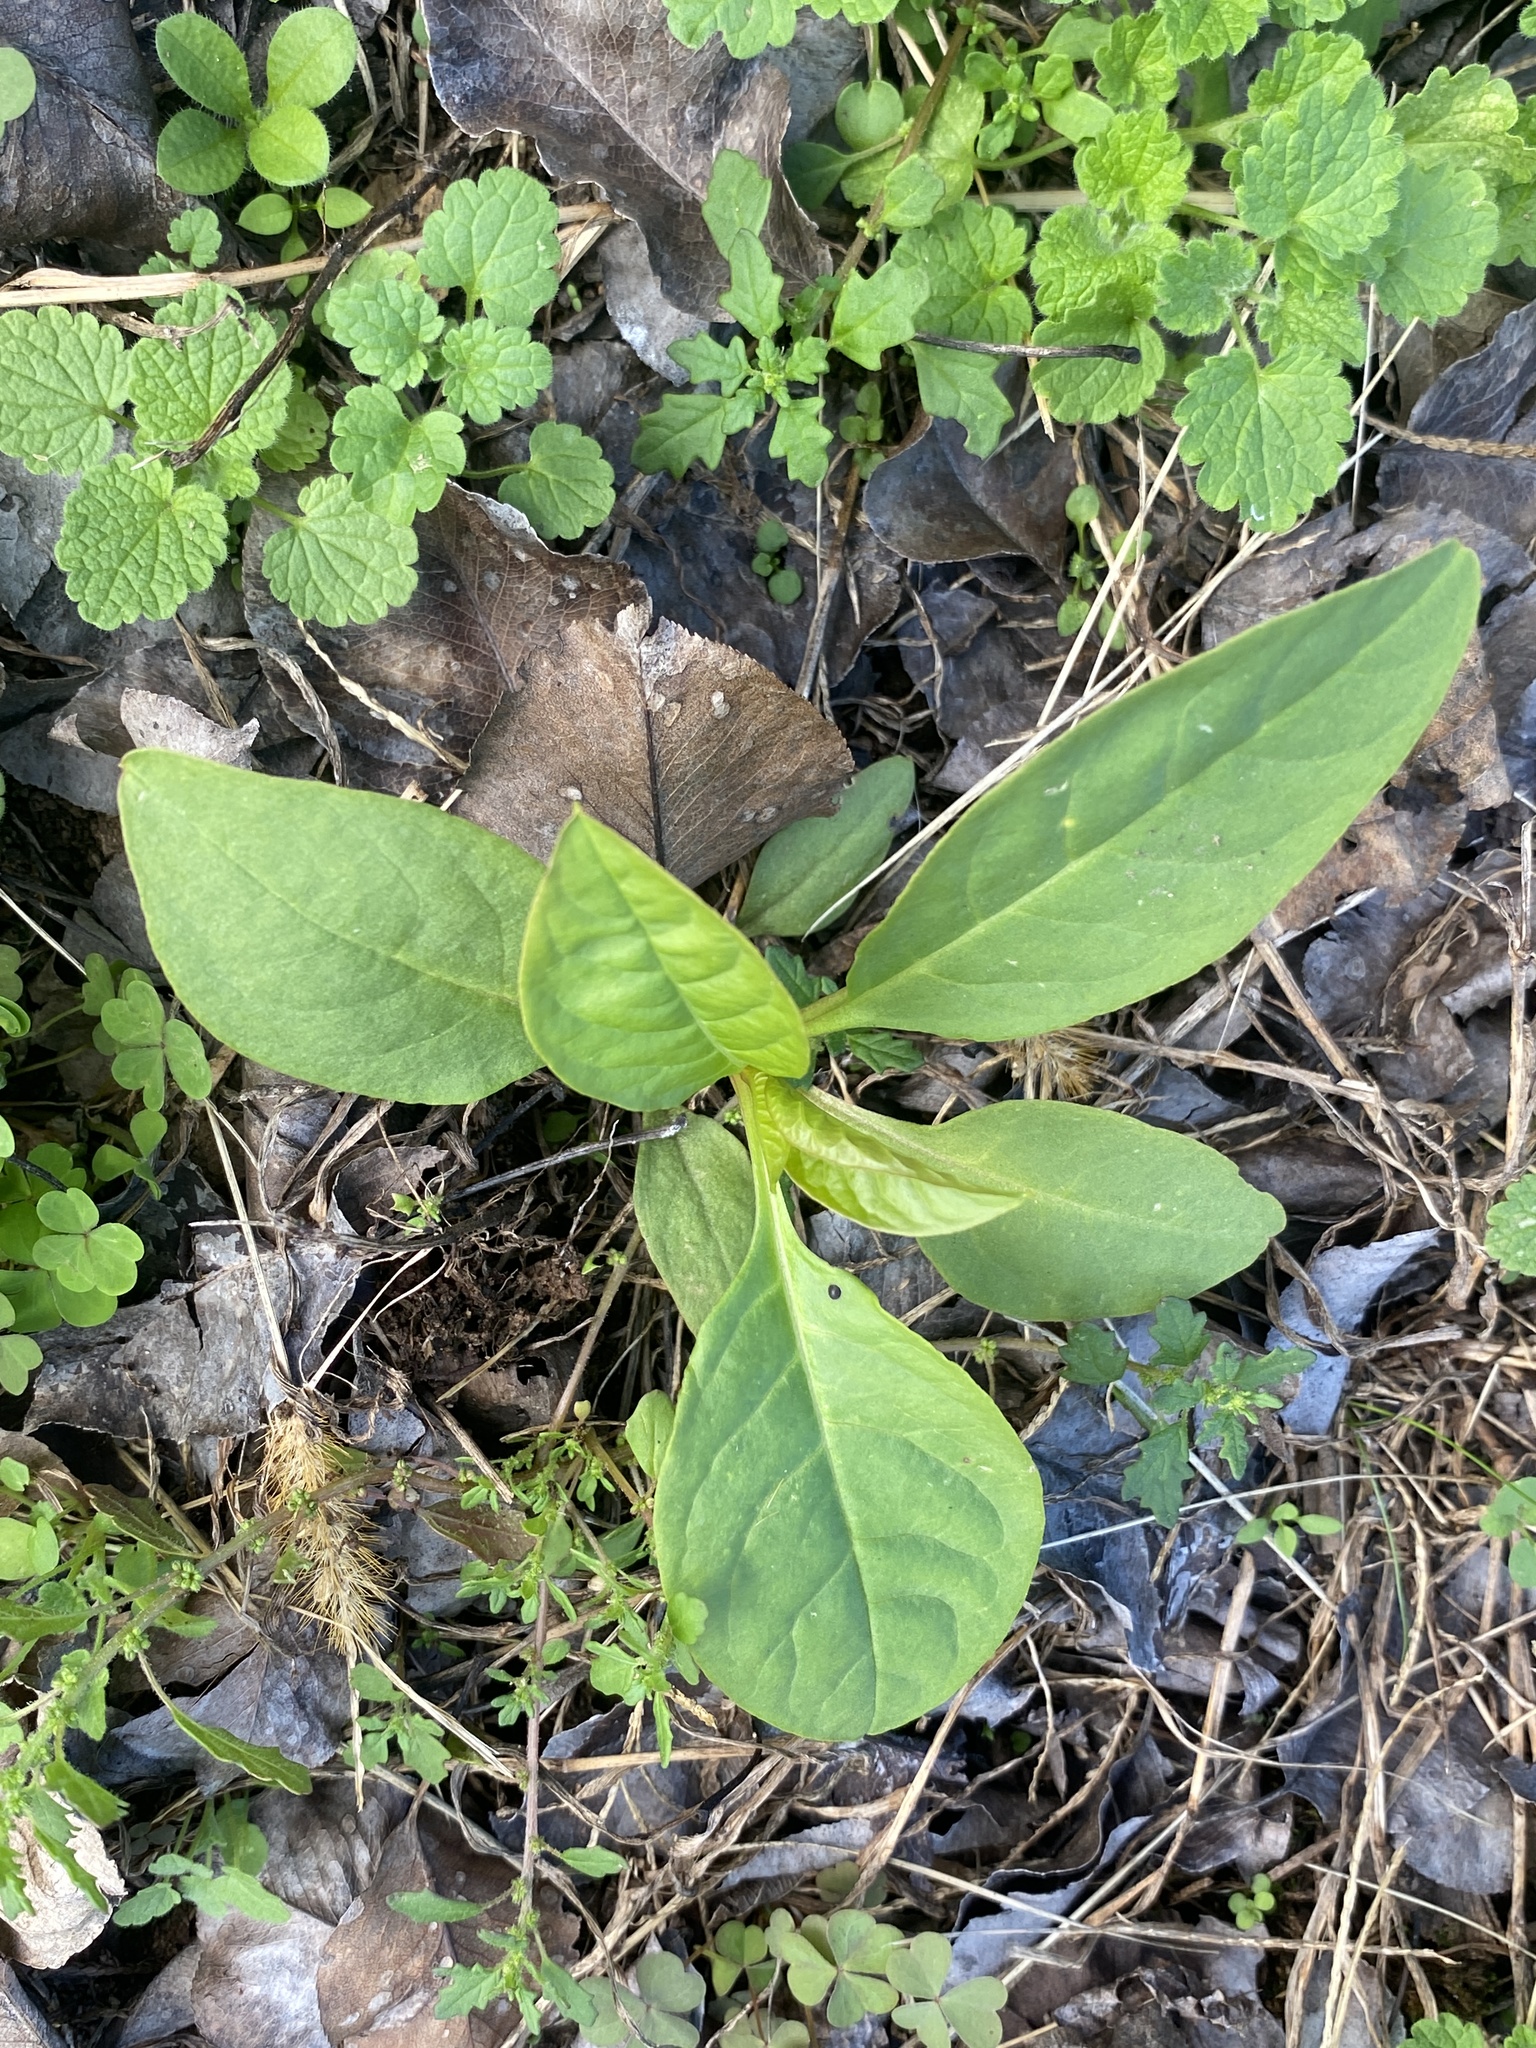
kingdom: Plantae
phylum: Tracheophyta
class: Magnoliopsida
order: Caryophyllales
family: Phytolaccaceae
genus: Phytolacca
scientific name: Phytolacca americana
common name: American pokeweed
